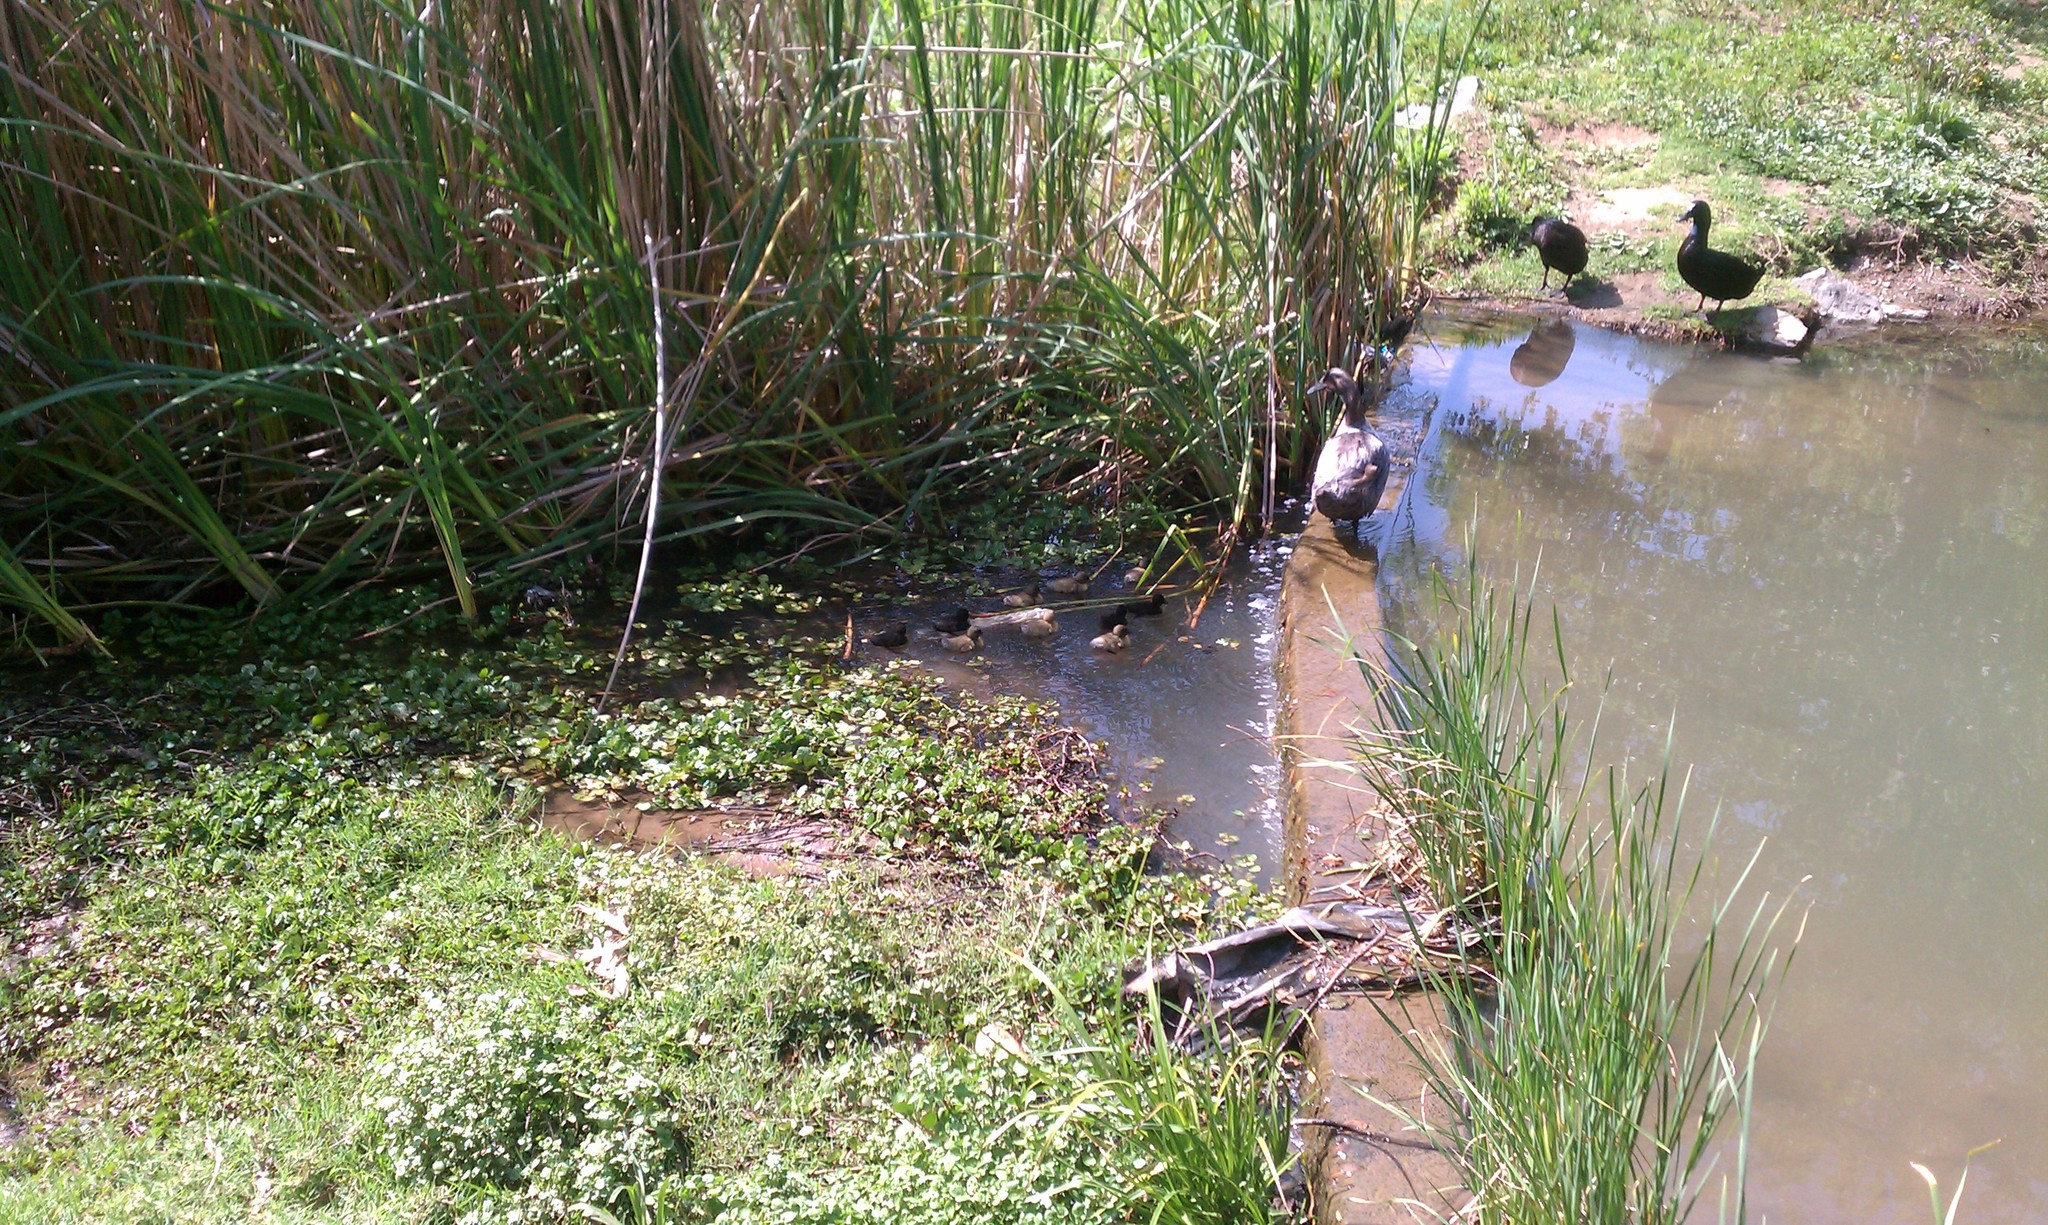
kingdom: Animalia
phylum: Chordata
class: Aves
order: Anseriformes
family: Anatidae
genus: Anas
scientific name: Anas platyrhynchos
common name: Mallard
